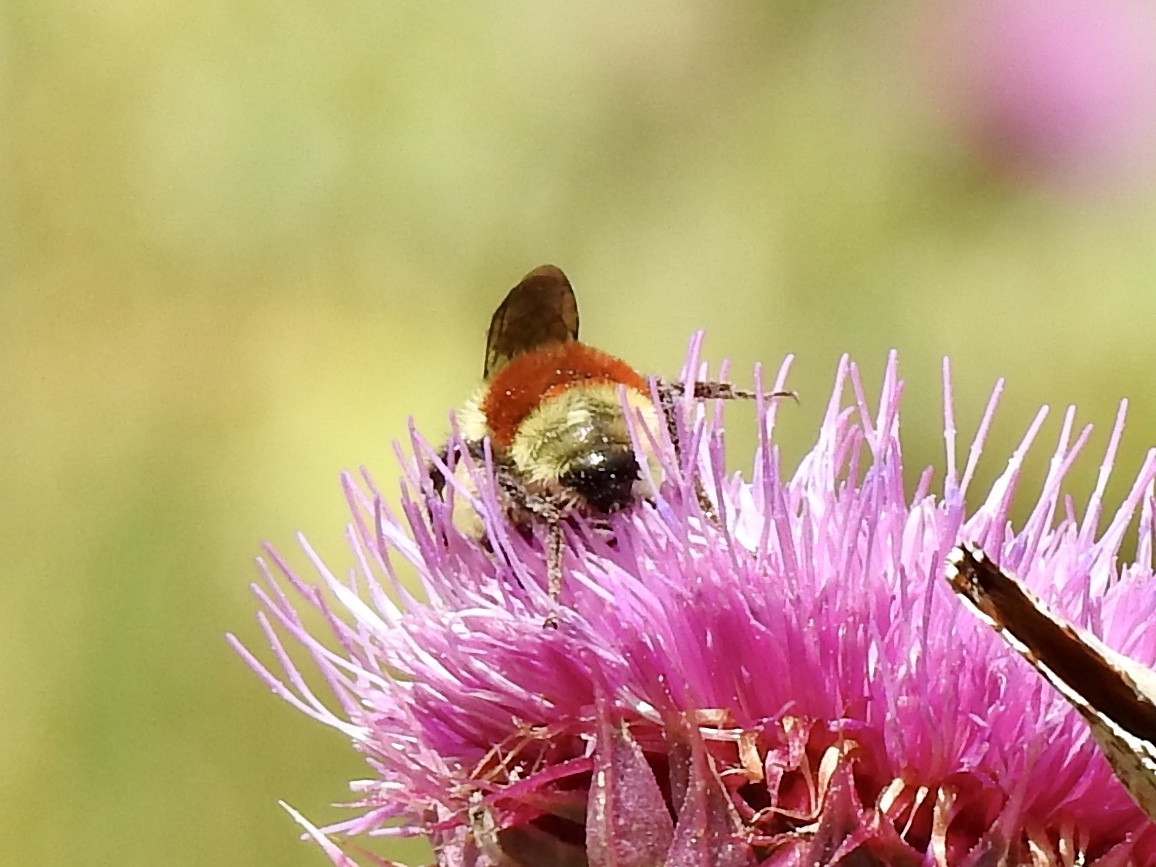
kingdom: Animalia
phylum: Arthropoda
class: Insecta
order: Hymenoptera
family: Apidae
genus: Bombus
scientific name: Bombus huntii
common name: Hunt bumble bee
